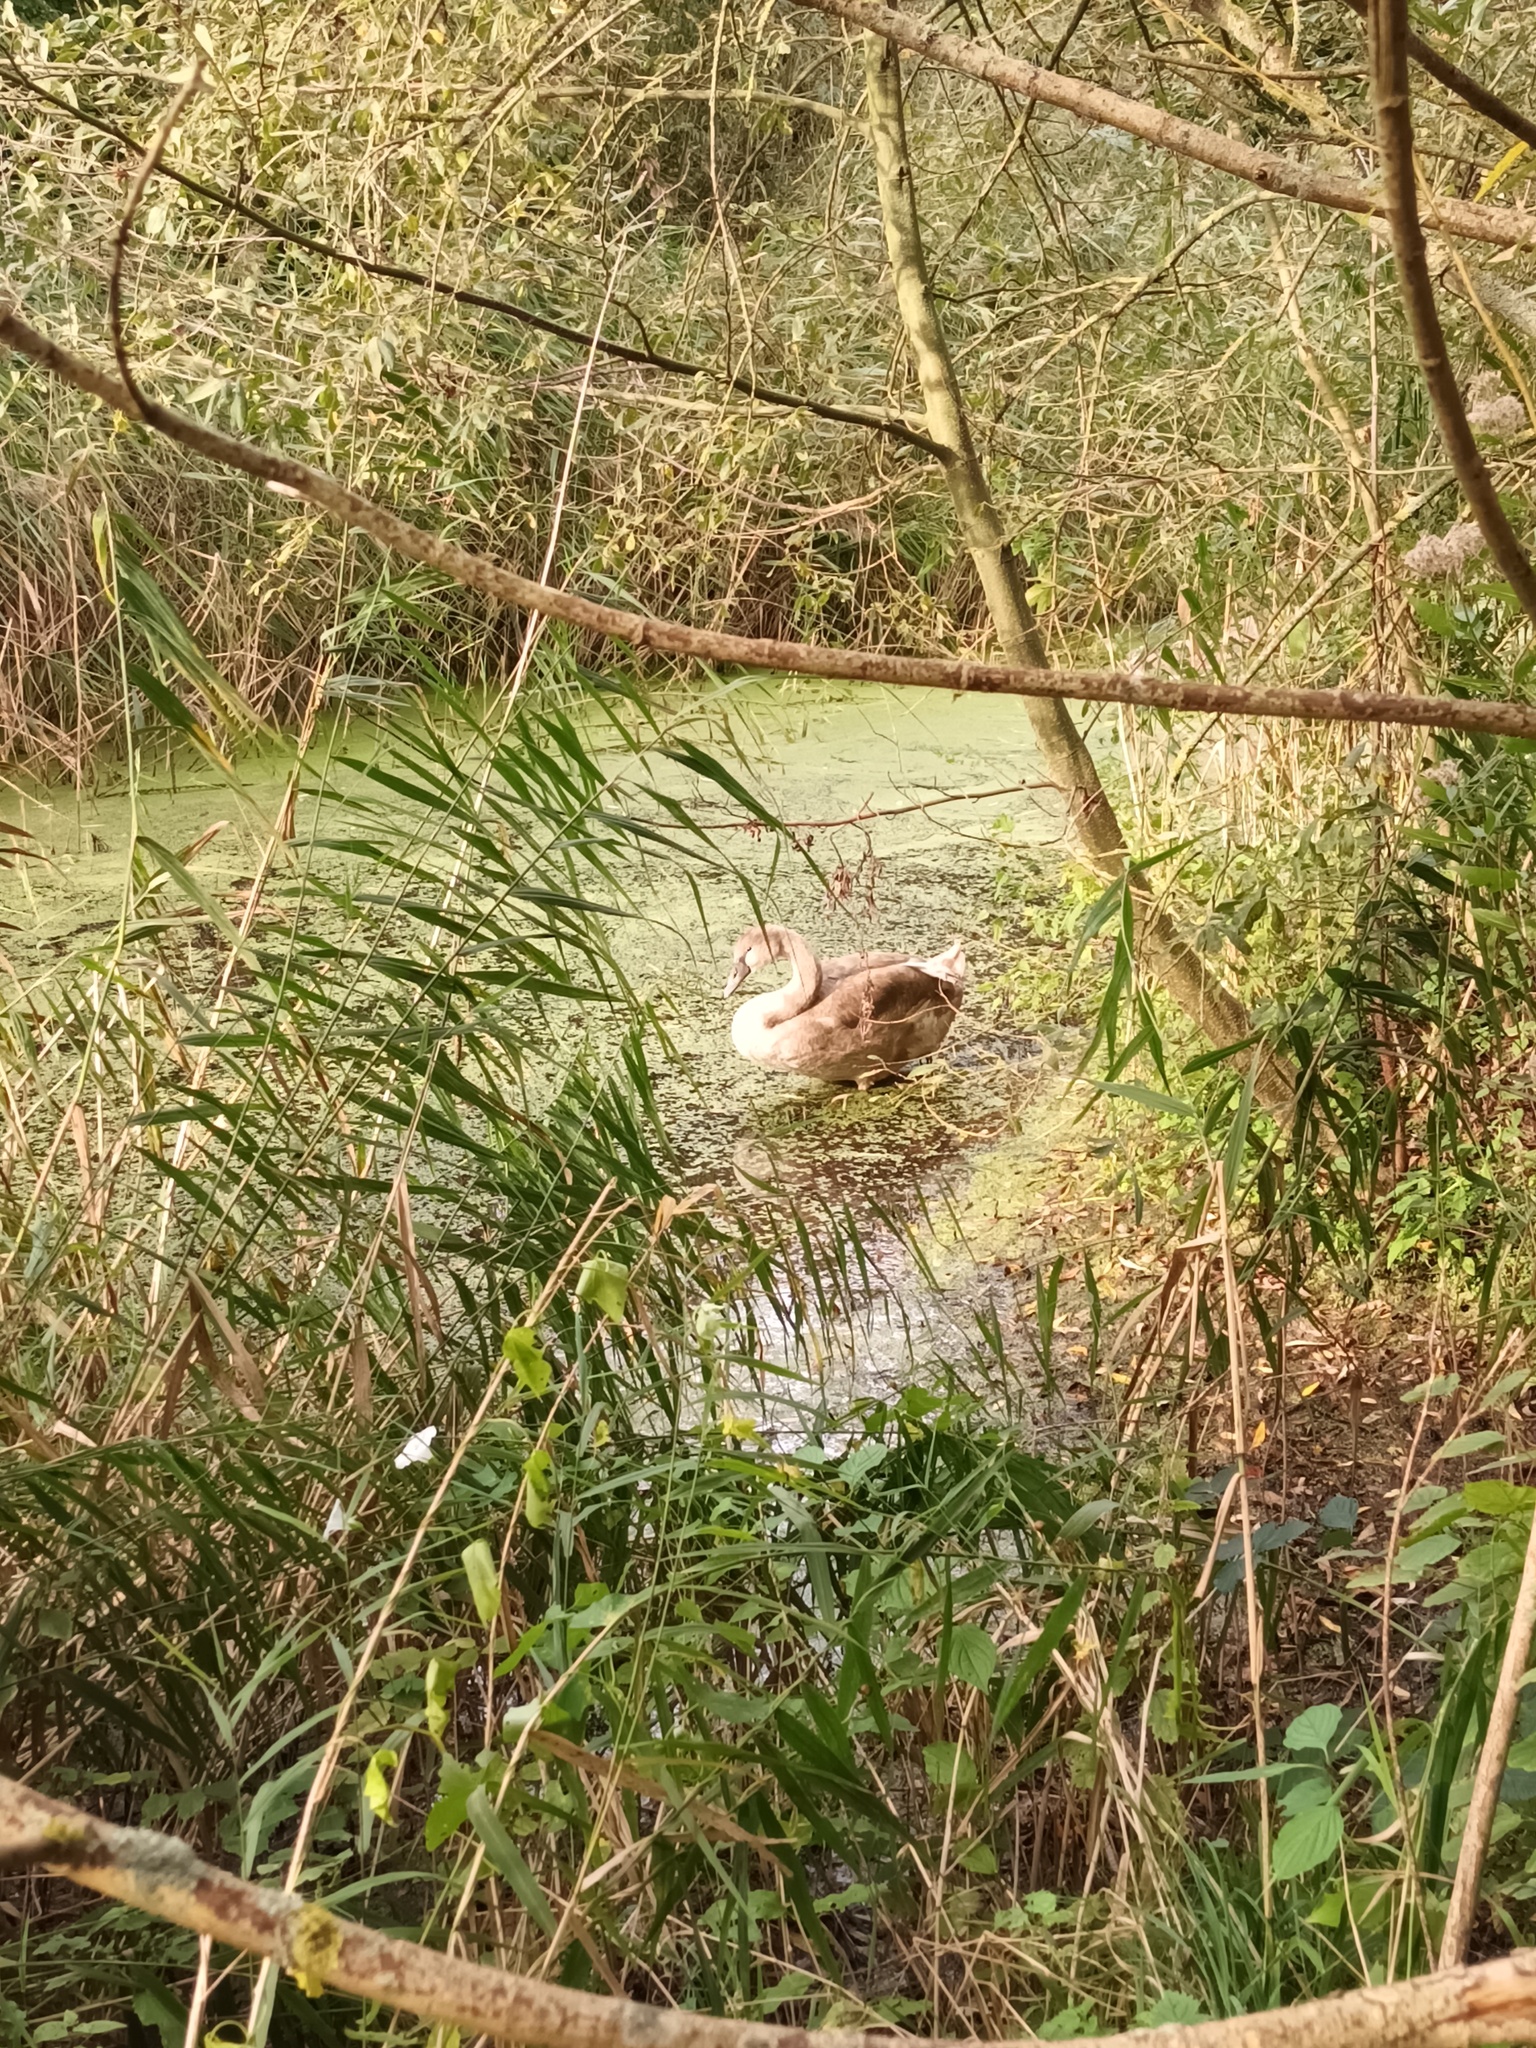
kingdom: Animalia
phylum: Chordata
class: Aves
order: Anseriformes
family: Anatidae
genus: Cygnus
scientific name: Cygnus olor
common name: Mute swan
